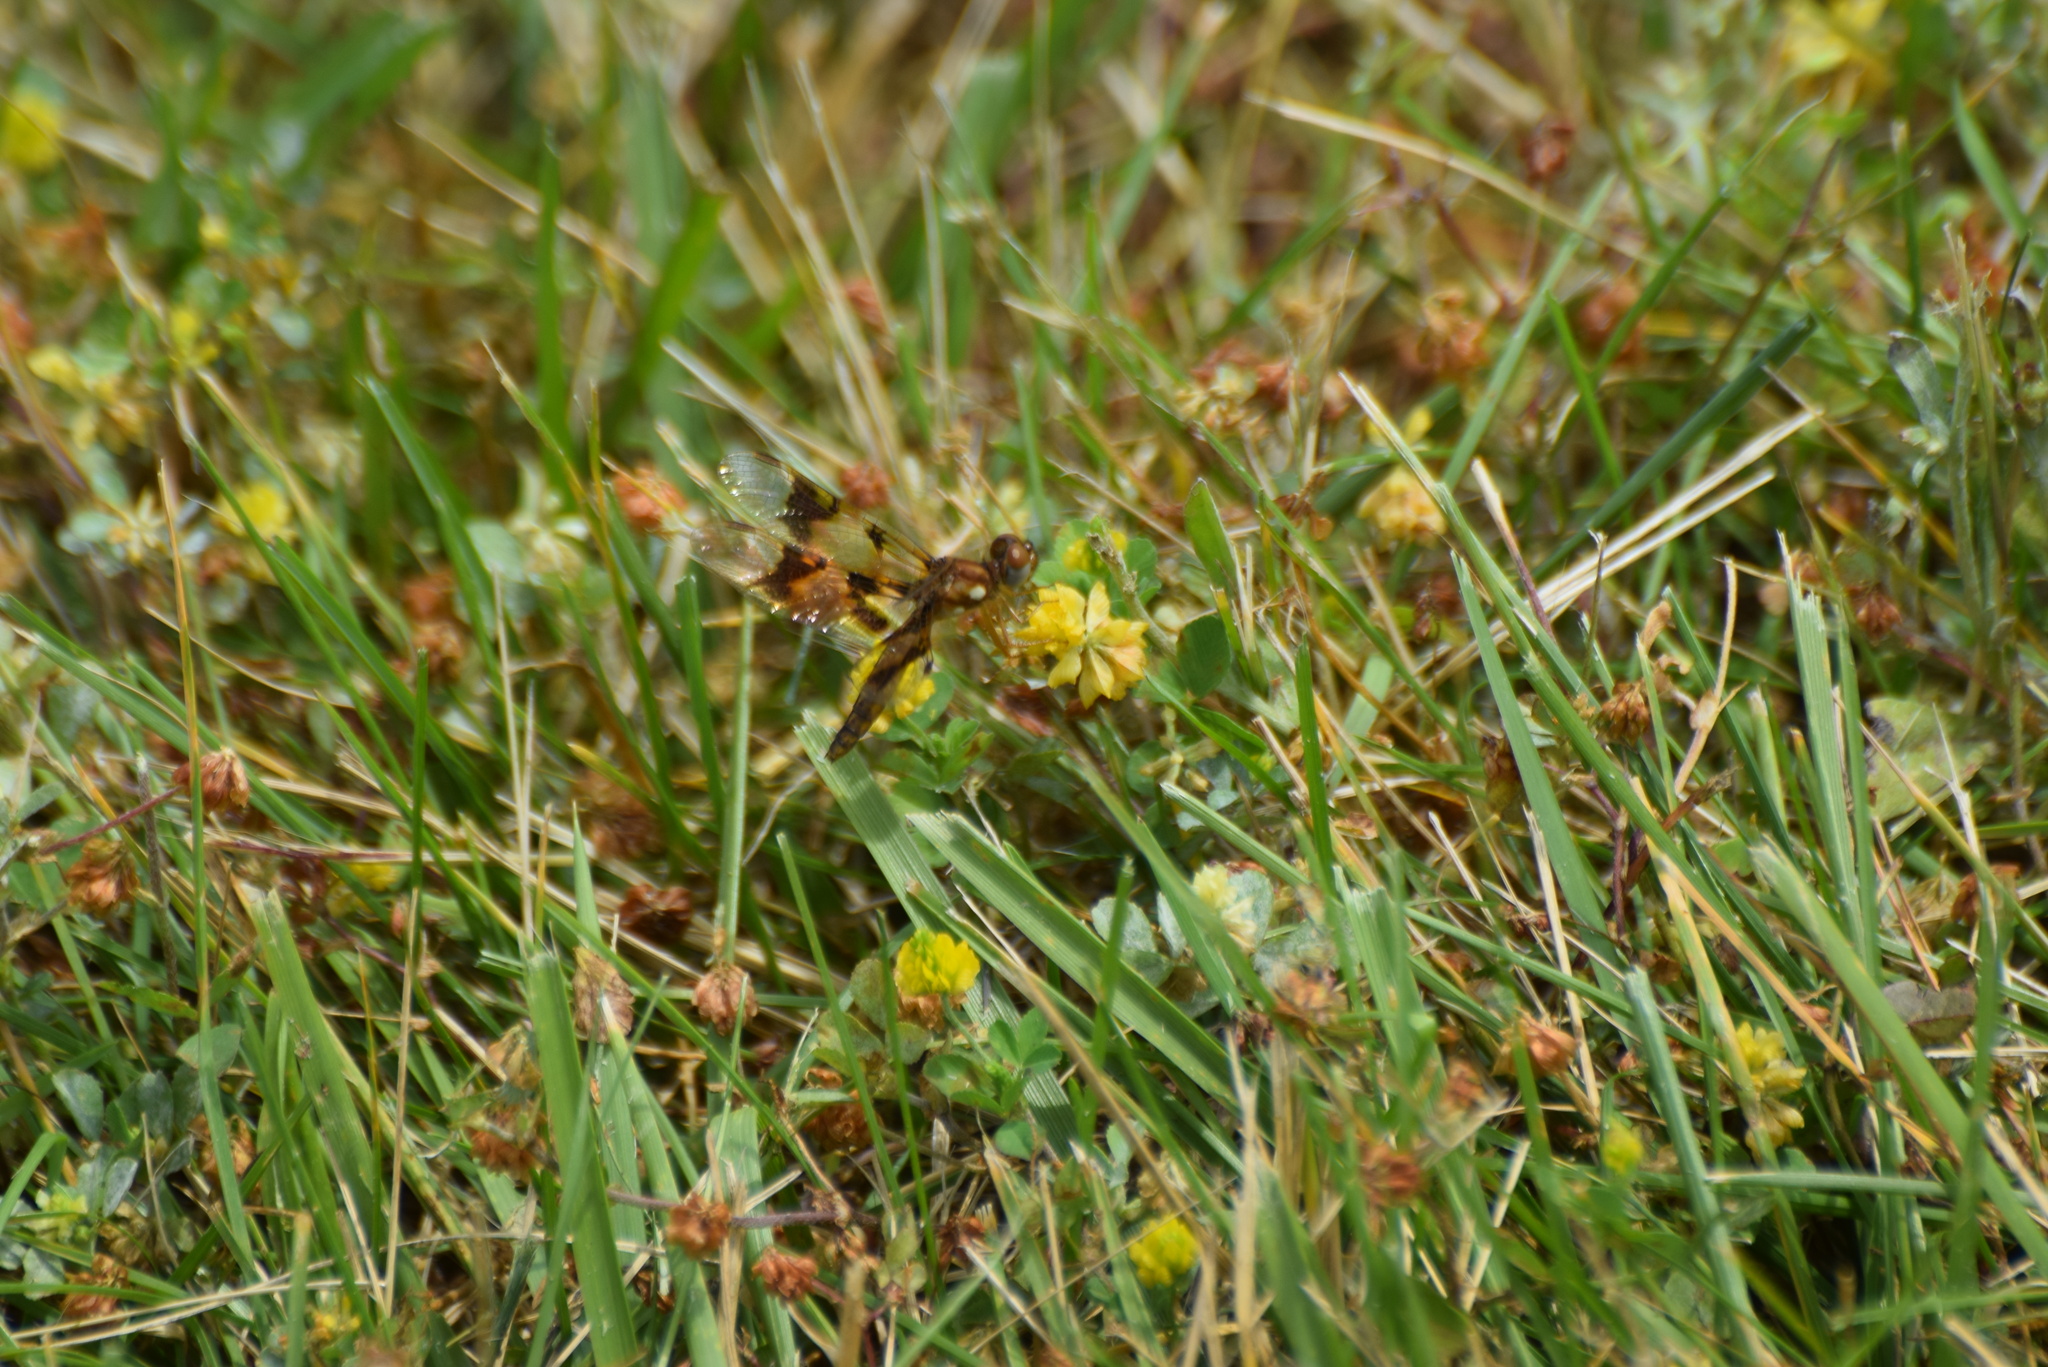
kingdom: Animalia
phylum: Arthropoda
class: Insecta
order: Odonata
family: Libellulidae
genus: Perithemis
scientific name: Perithemis tenera
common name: Eastern amberwing
